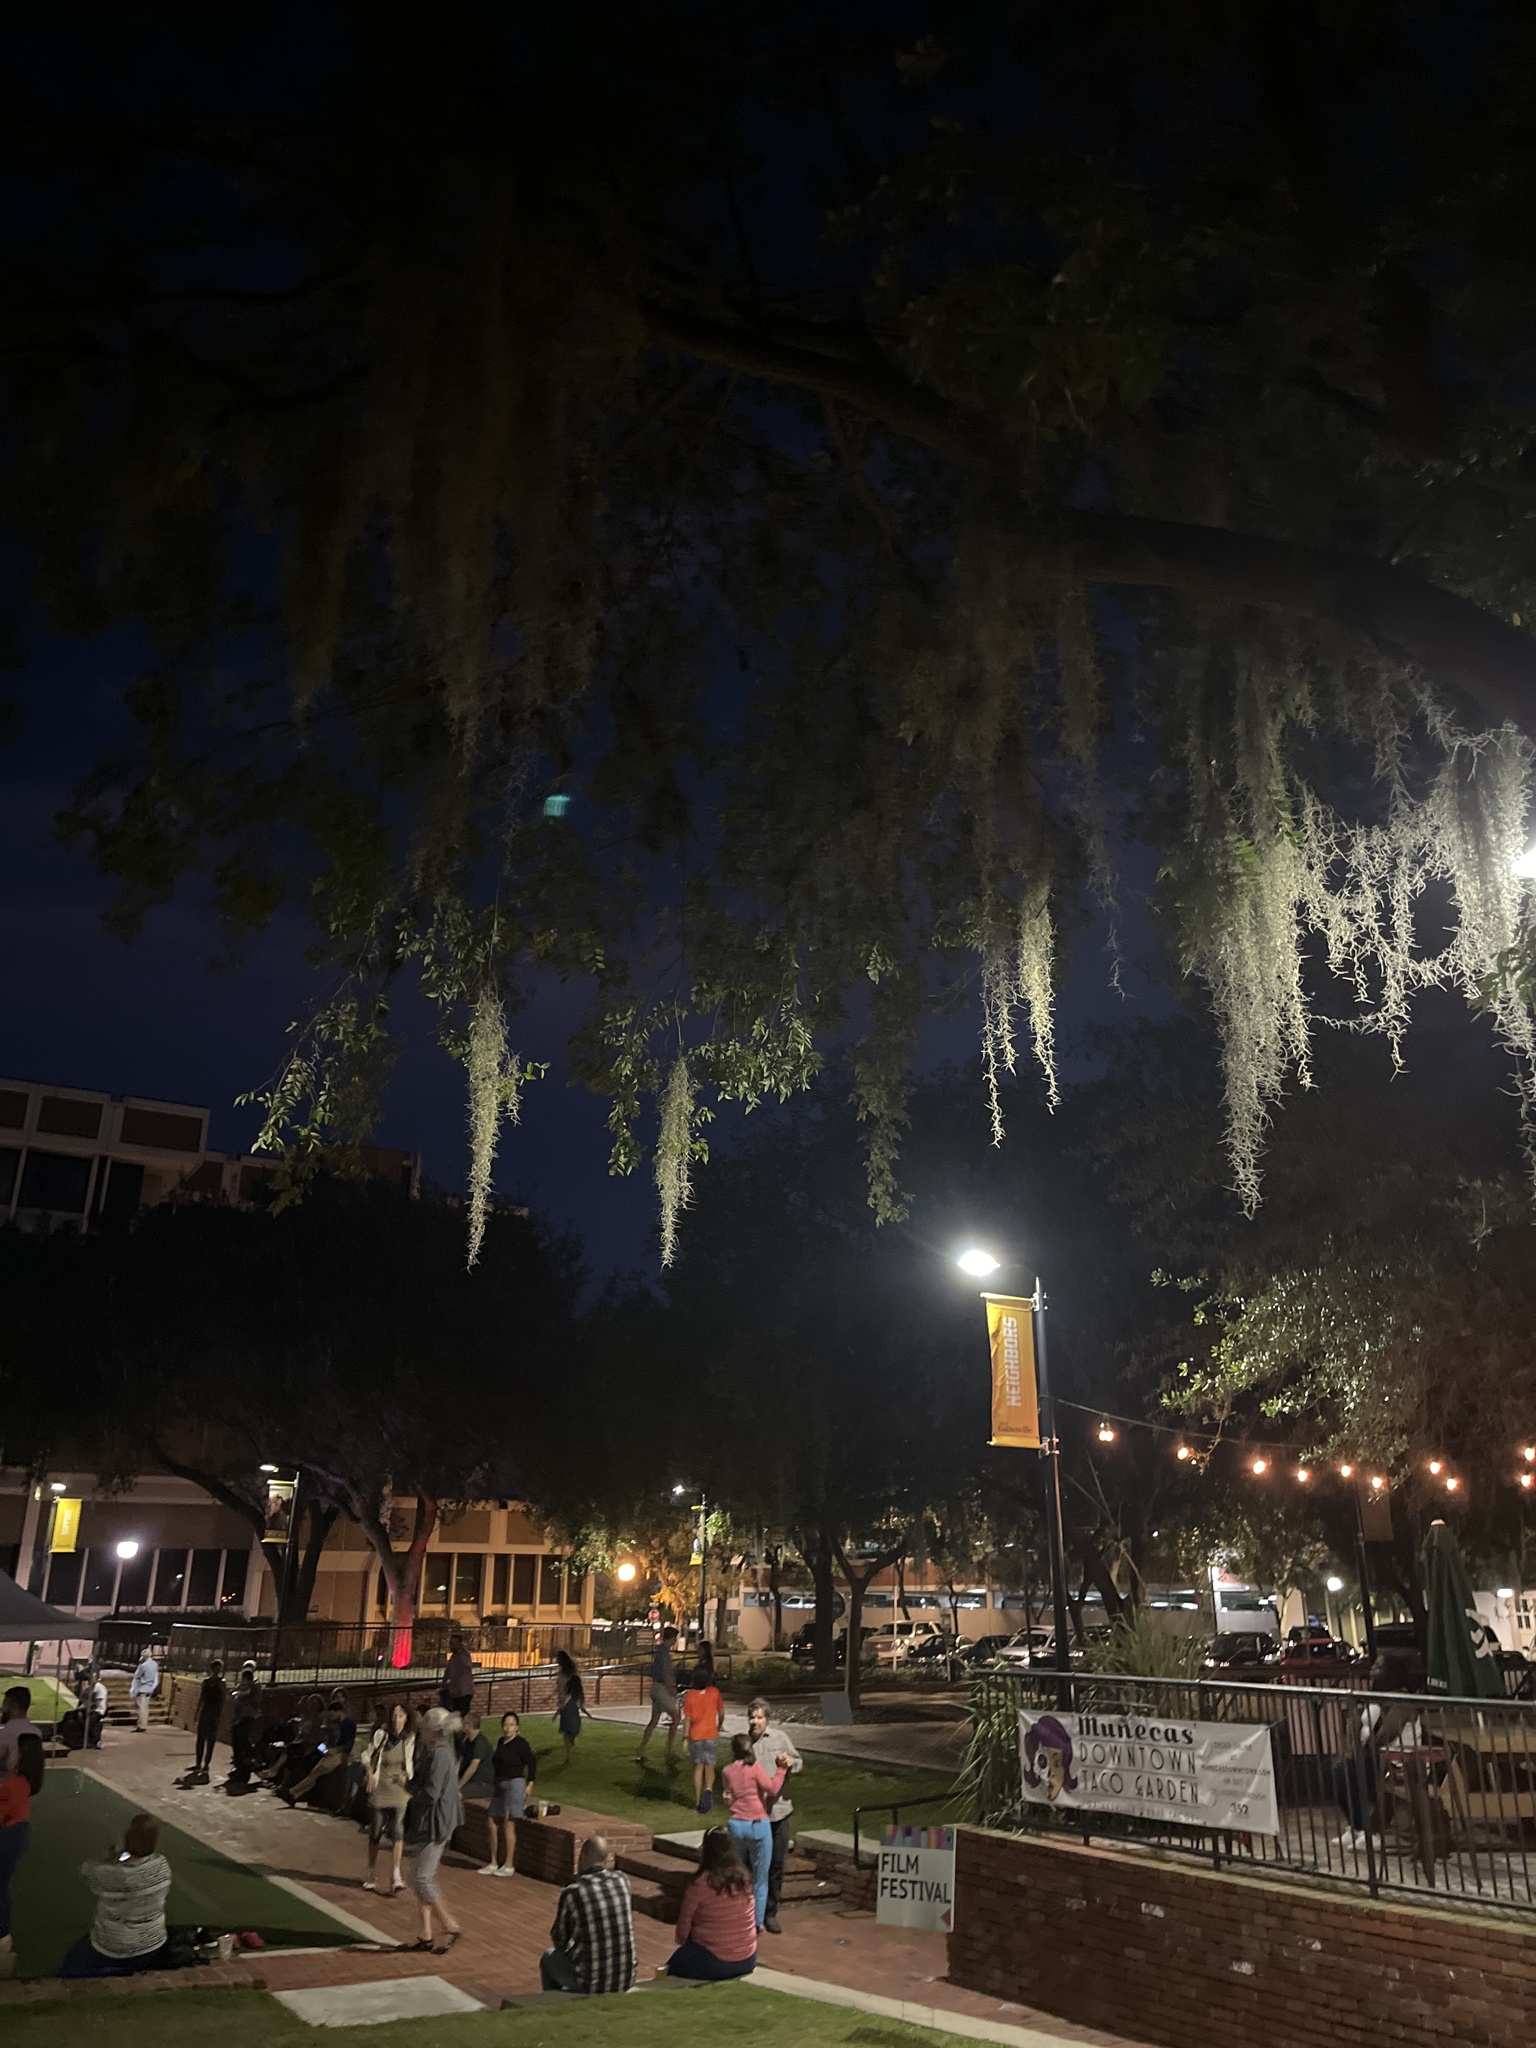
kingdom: Plantae
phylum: Tracheophyta
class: Liliopsida
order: Poales
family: Bromeliaceae
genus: Tillandsia
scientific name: Tillandsia usneoides
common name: Spanish moss
